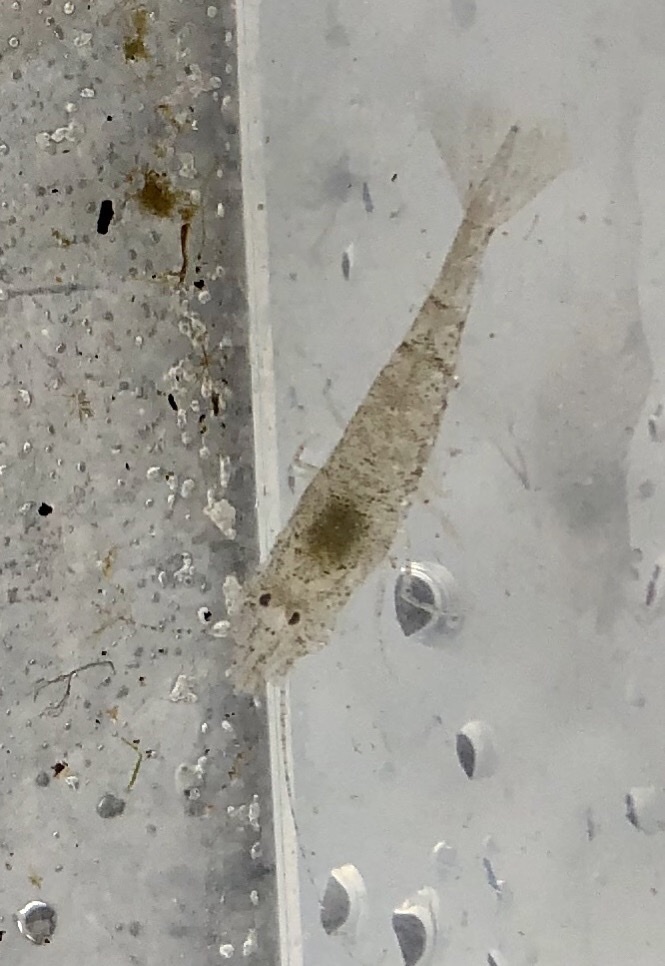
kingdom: Animalia
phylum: Arthropoda
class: Malacostraca
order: Decapoda
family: Crangonidae
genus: Crangon
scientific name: Crangon crangon
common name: Brown shrimp
